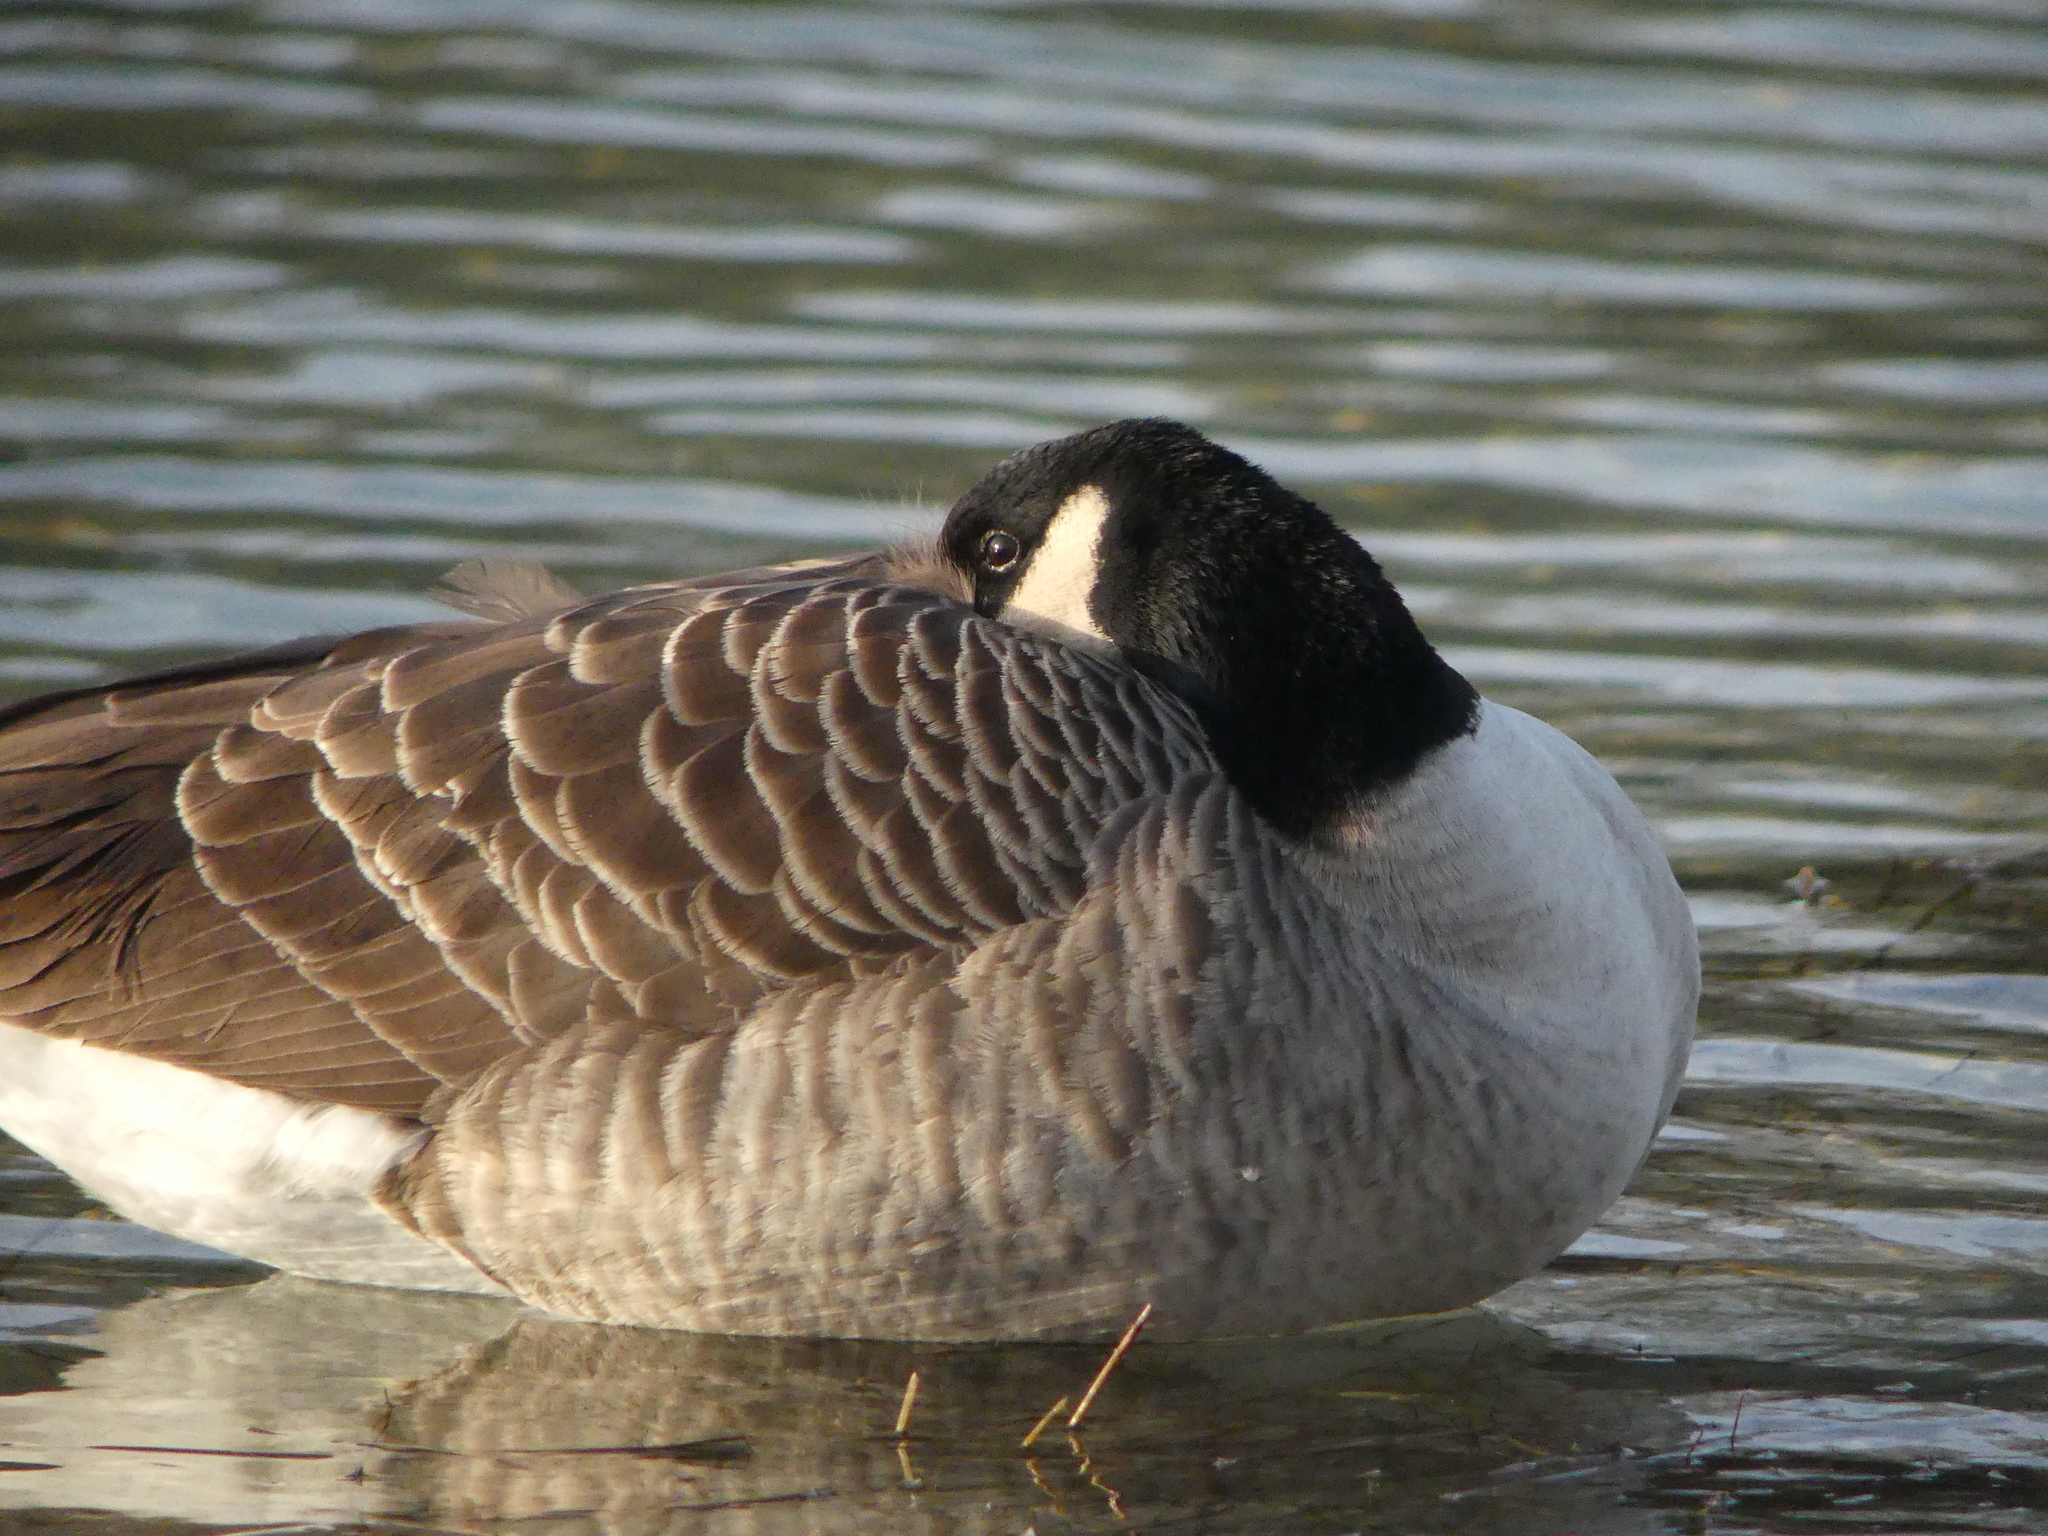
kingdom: Animalia
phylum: Chordata
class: Aves
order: Anseriformes
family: Anatidae
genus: Branta
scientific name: Branta canadensis
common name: Canada goose
